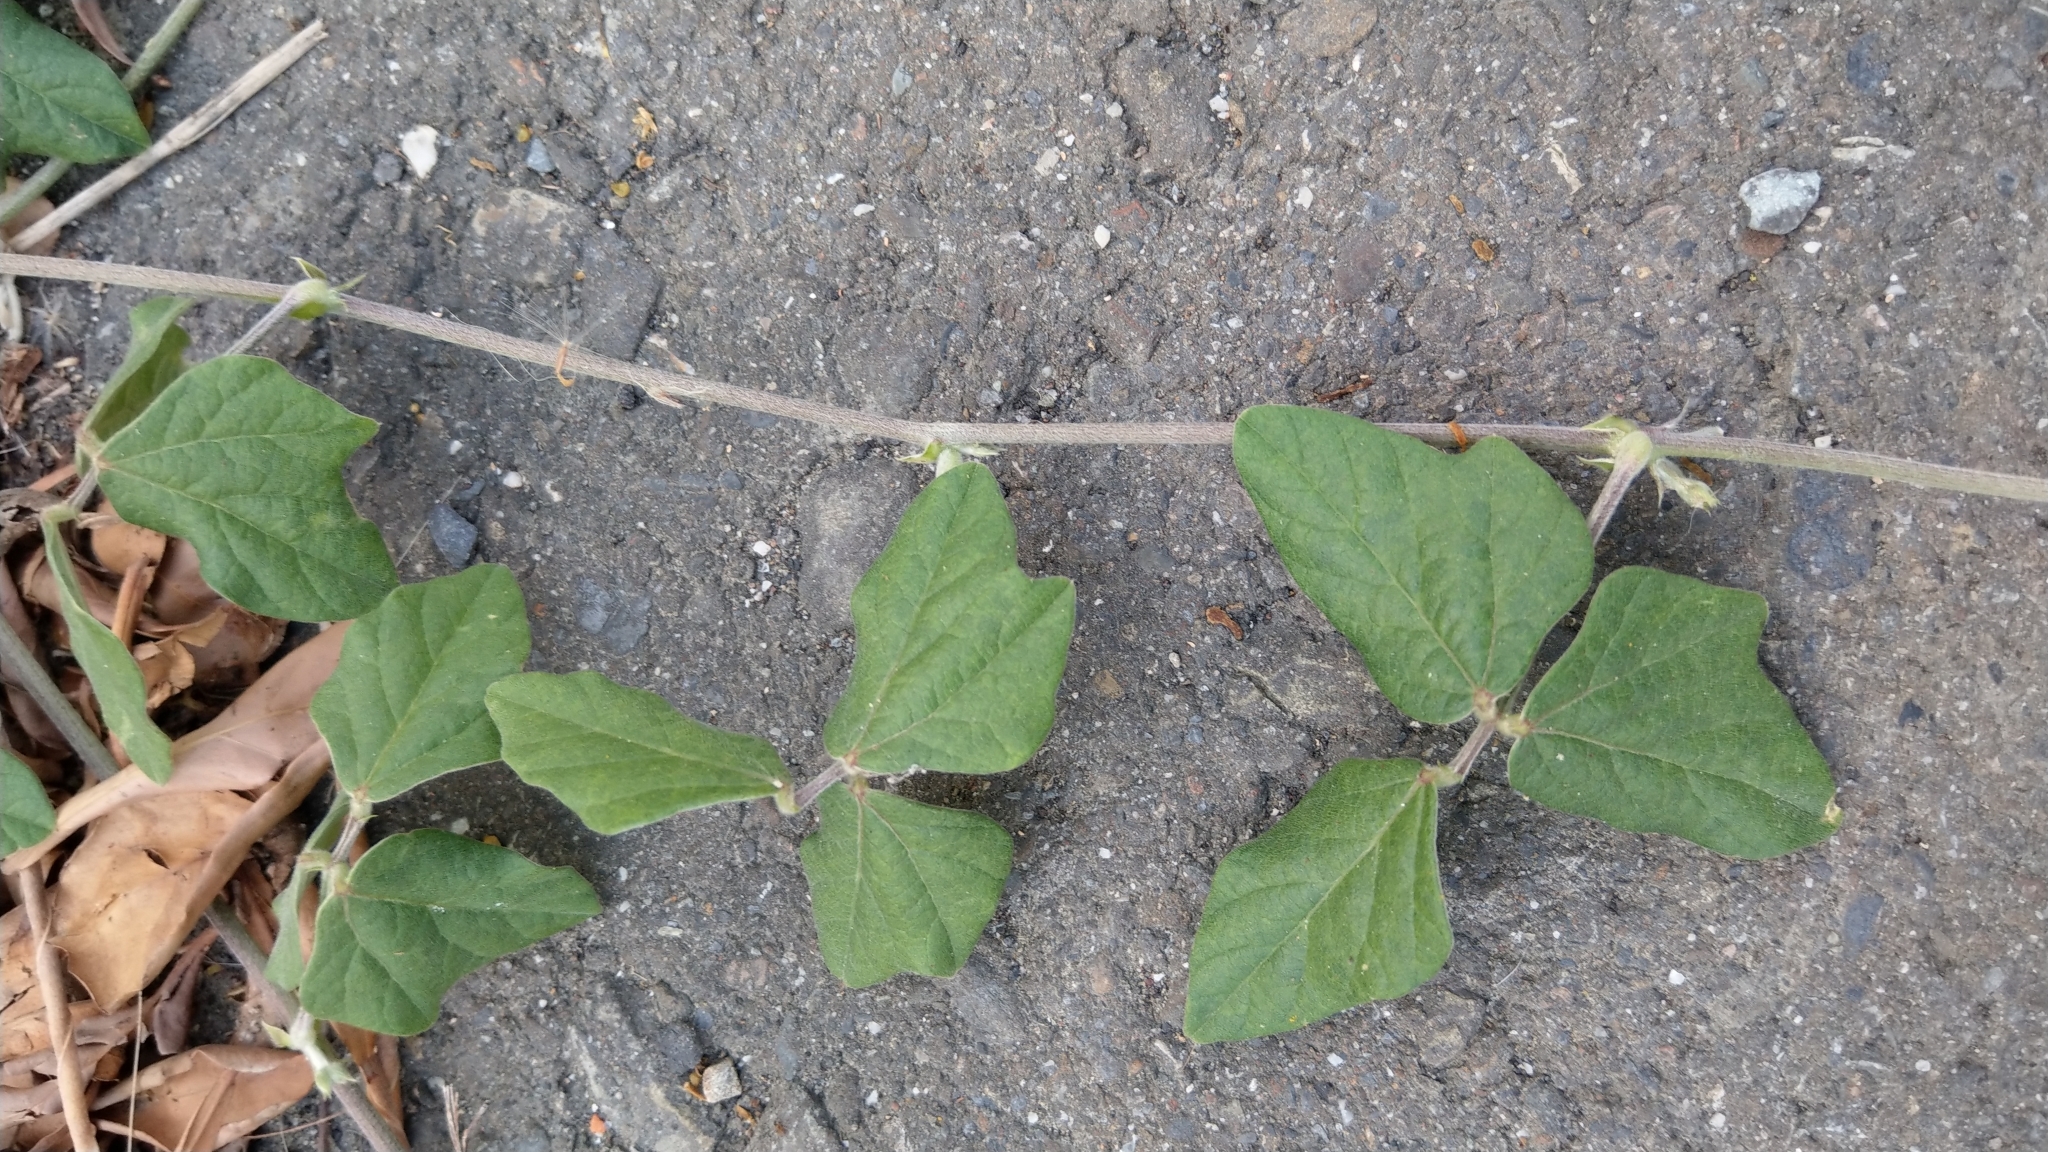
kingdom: Plantae
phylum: Tracheophyta
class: Magnoliopsida
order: Fabales
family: Fabaceae
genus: Macroptilium
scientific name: Macroptilium atropurpureum
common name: Purple bushbean
